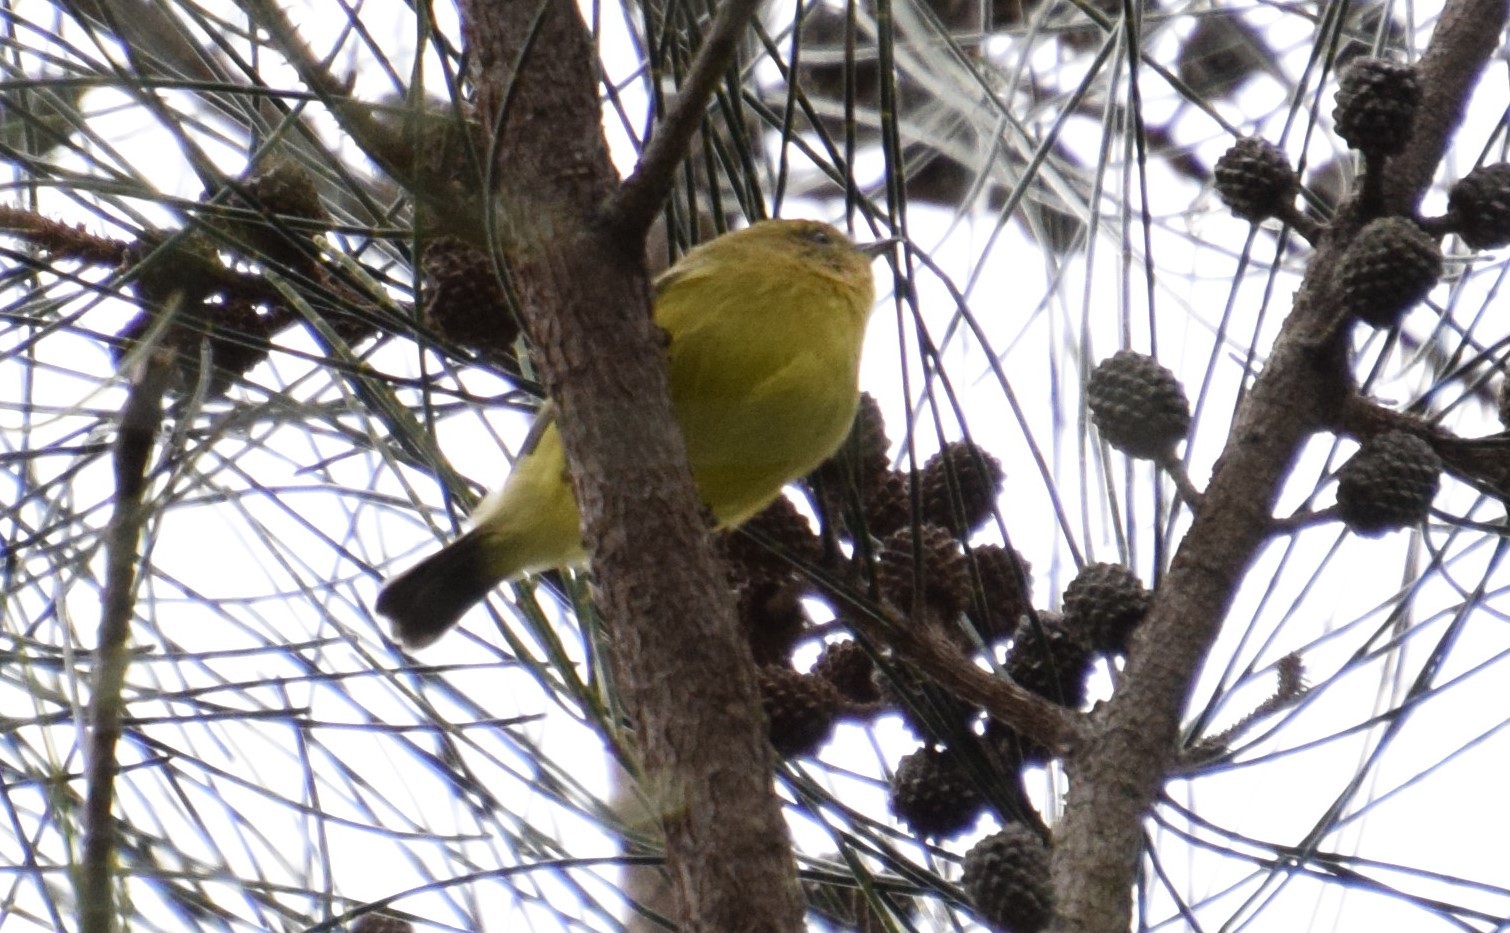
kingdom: Animalia
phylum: Chordata
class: Aves
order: Passeriformes
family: Acanthizidae
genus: Acanthiza
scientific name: Acanthiza nana
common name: Yellow thornbill
